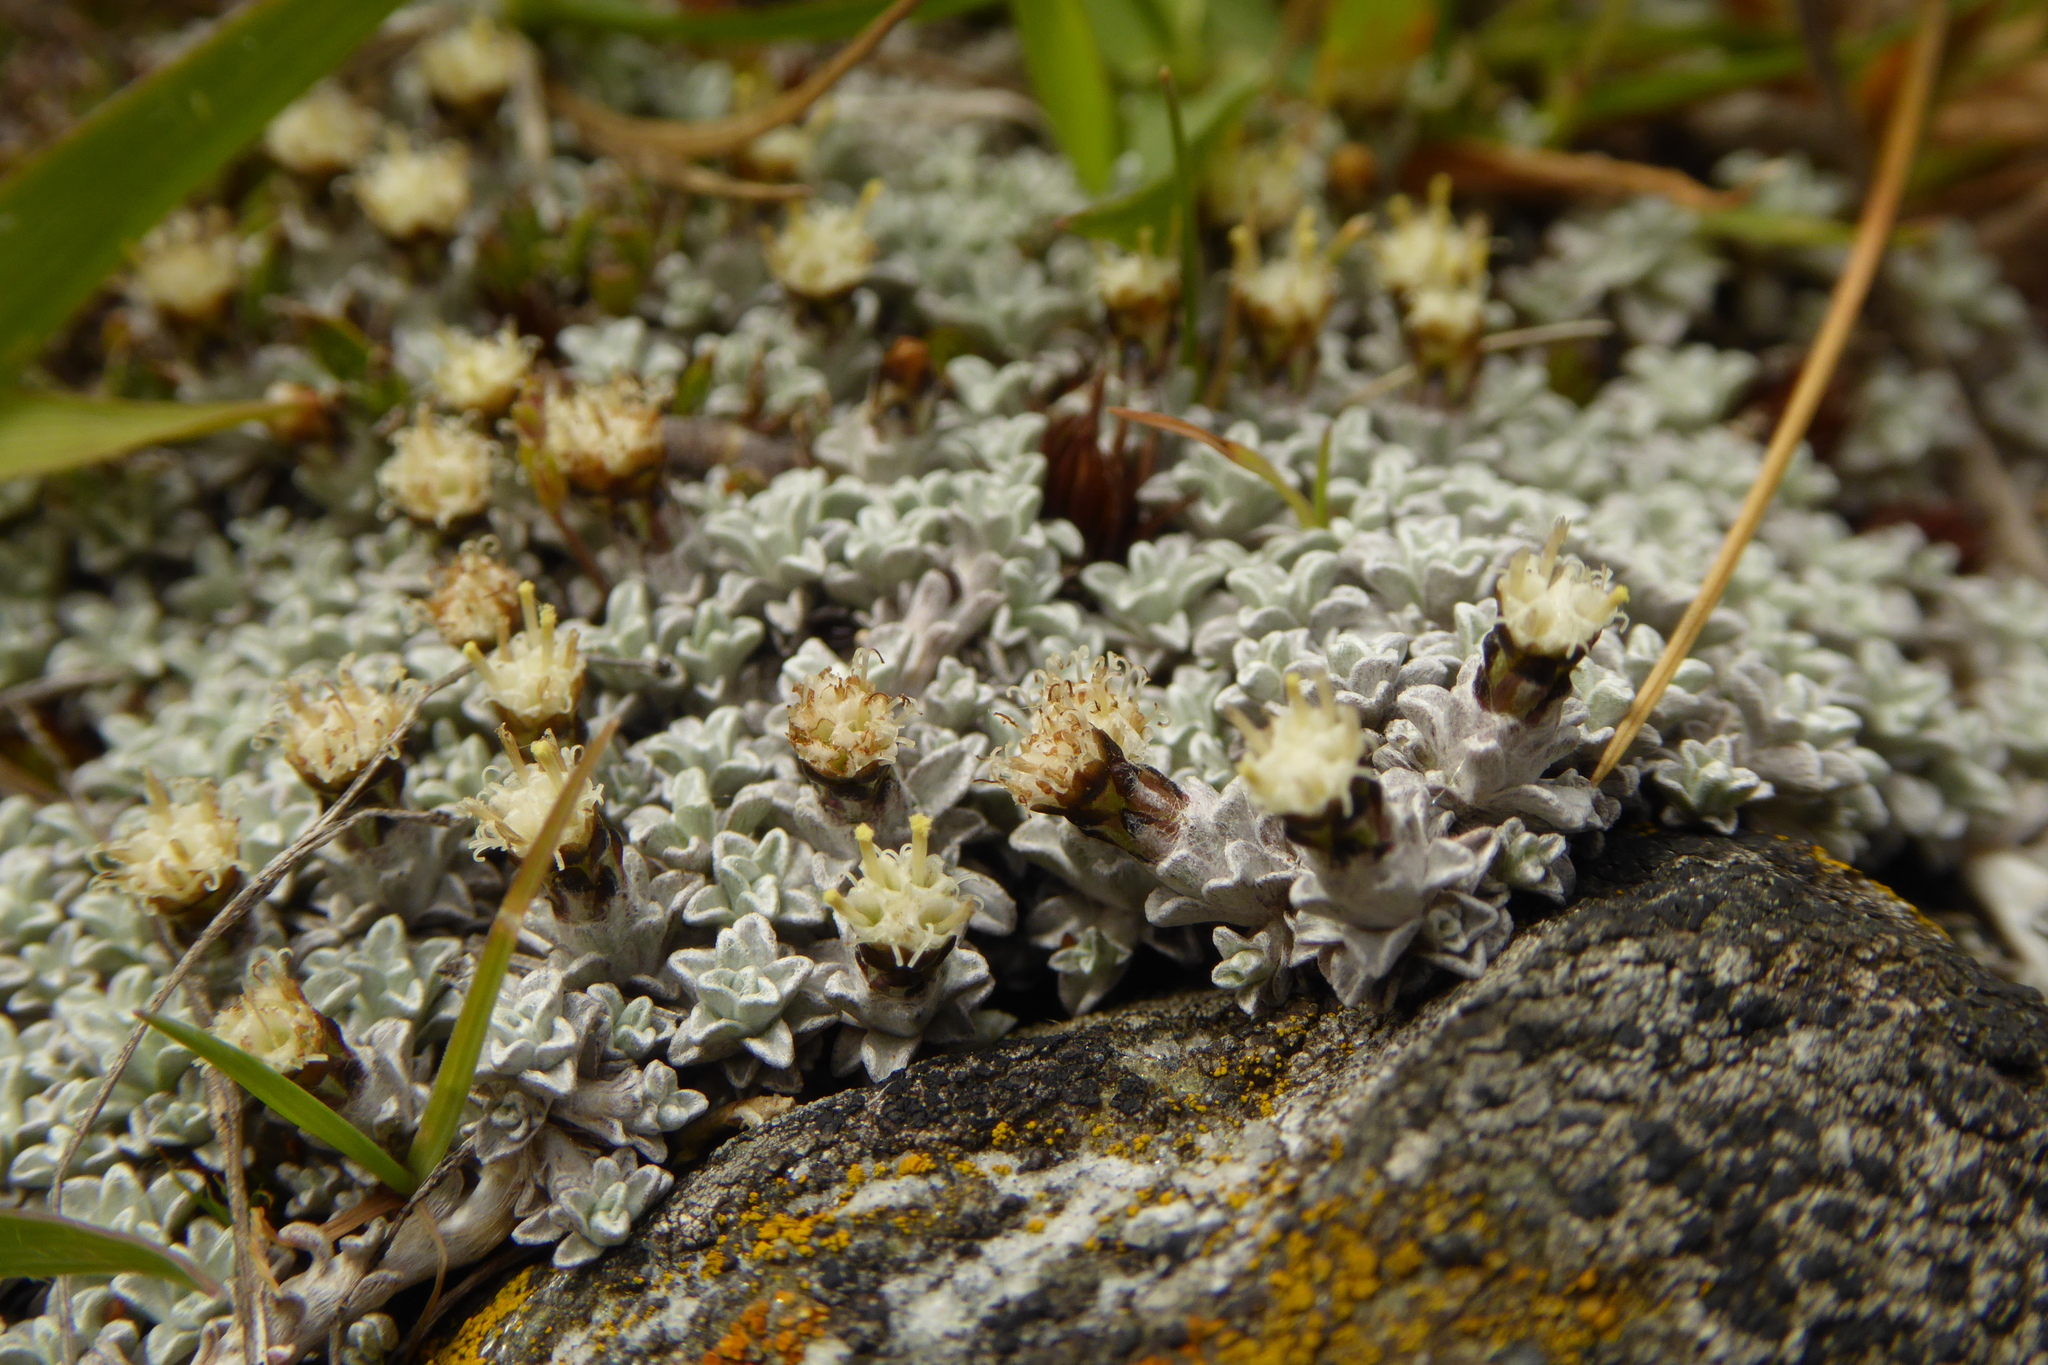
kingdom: Plantae
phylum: Tracheophyta
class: Magnoliopsida
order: Asterales
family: Asteraceae
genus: Raoulia
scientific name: Raoulia apicinigra
